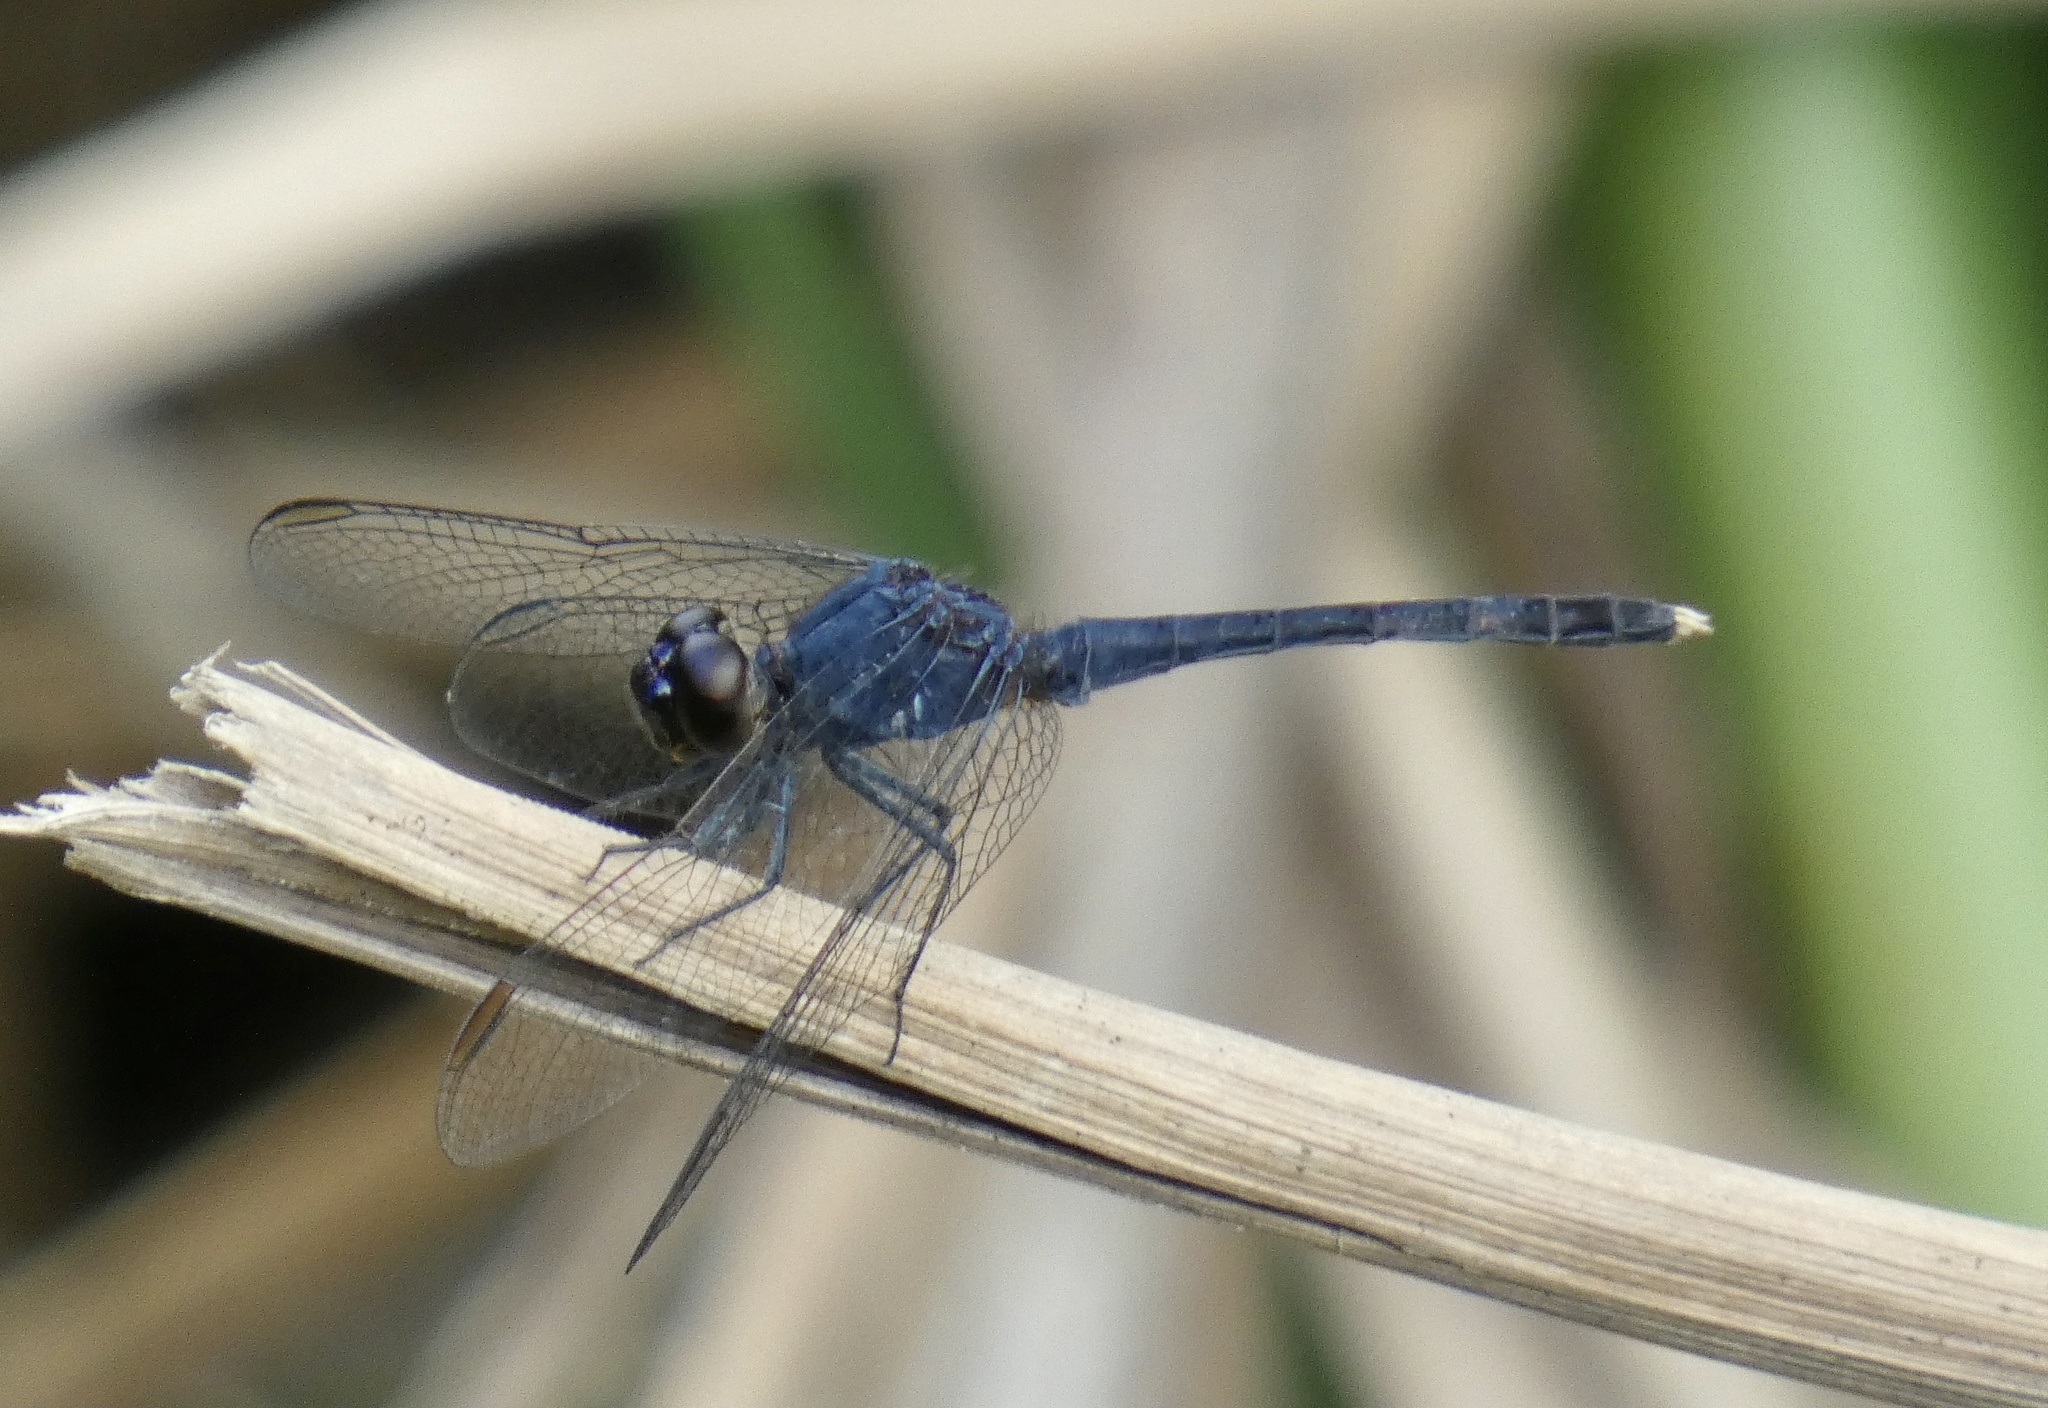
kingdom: Animalia
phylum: Arthropoda
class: Insecta
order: Odonata
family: Libellulidae
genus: Erythrodiplax
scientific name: Erythrodiplax juliana
